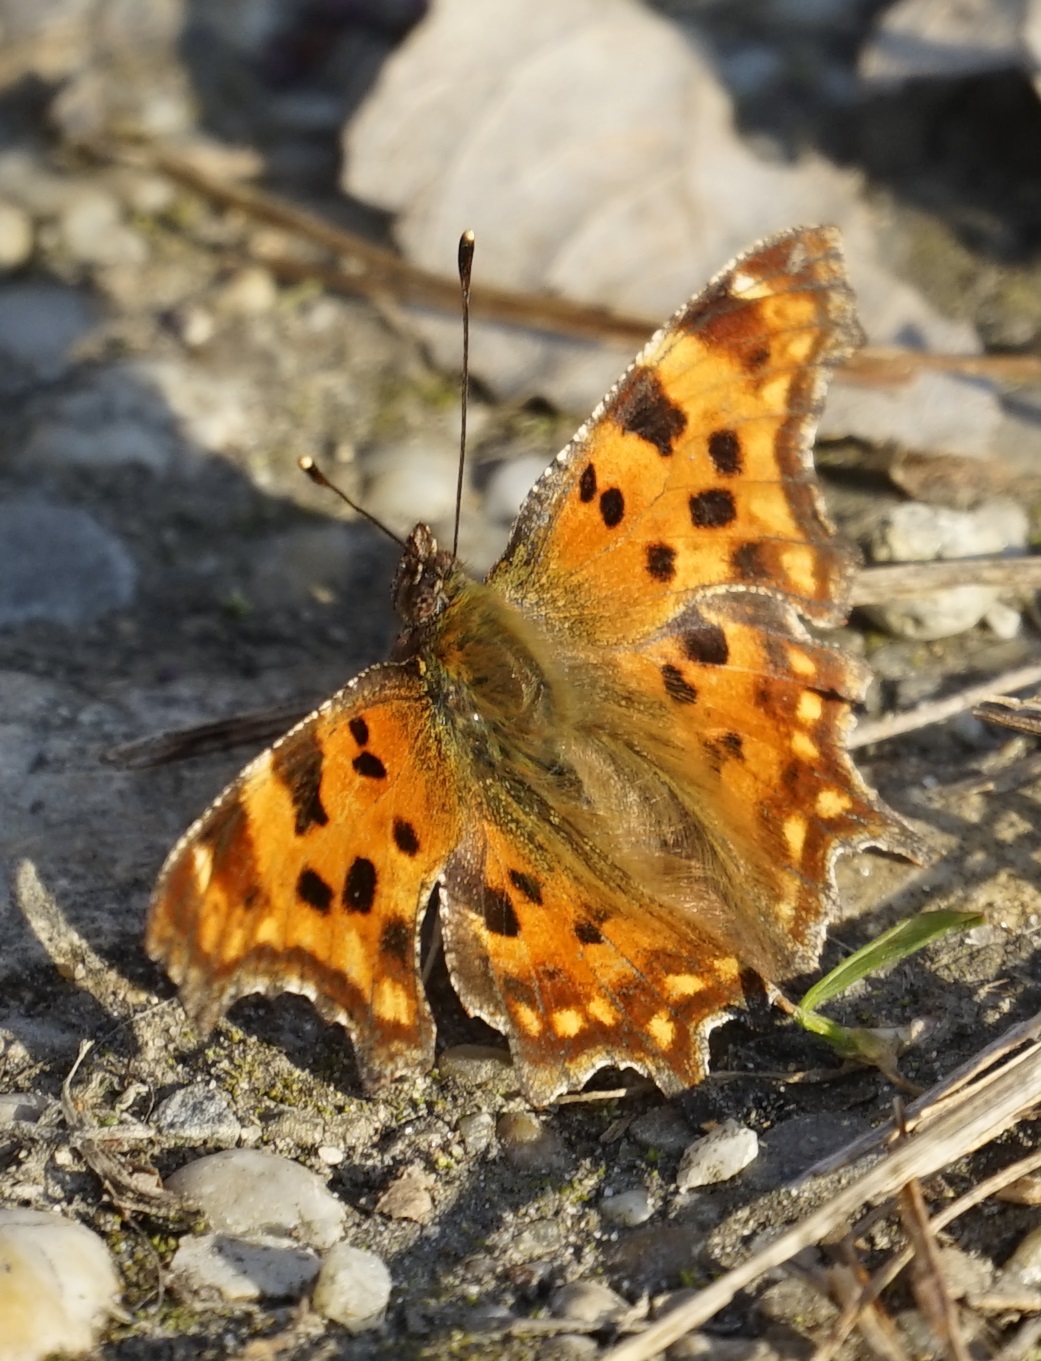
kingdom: Animalia
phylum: Arthropoda
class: Insecta
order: Lepidoptera
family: Nymphalidae
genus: Polygonia
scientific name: Polygonia c-album
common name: Comma
